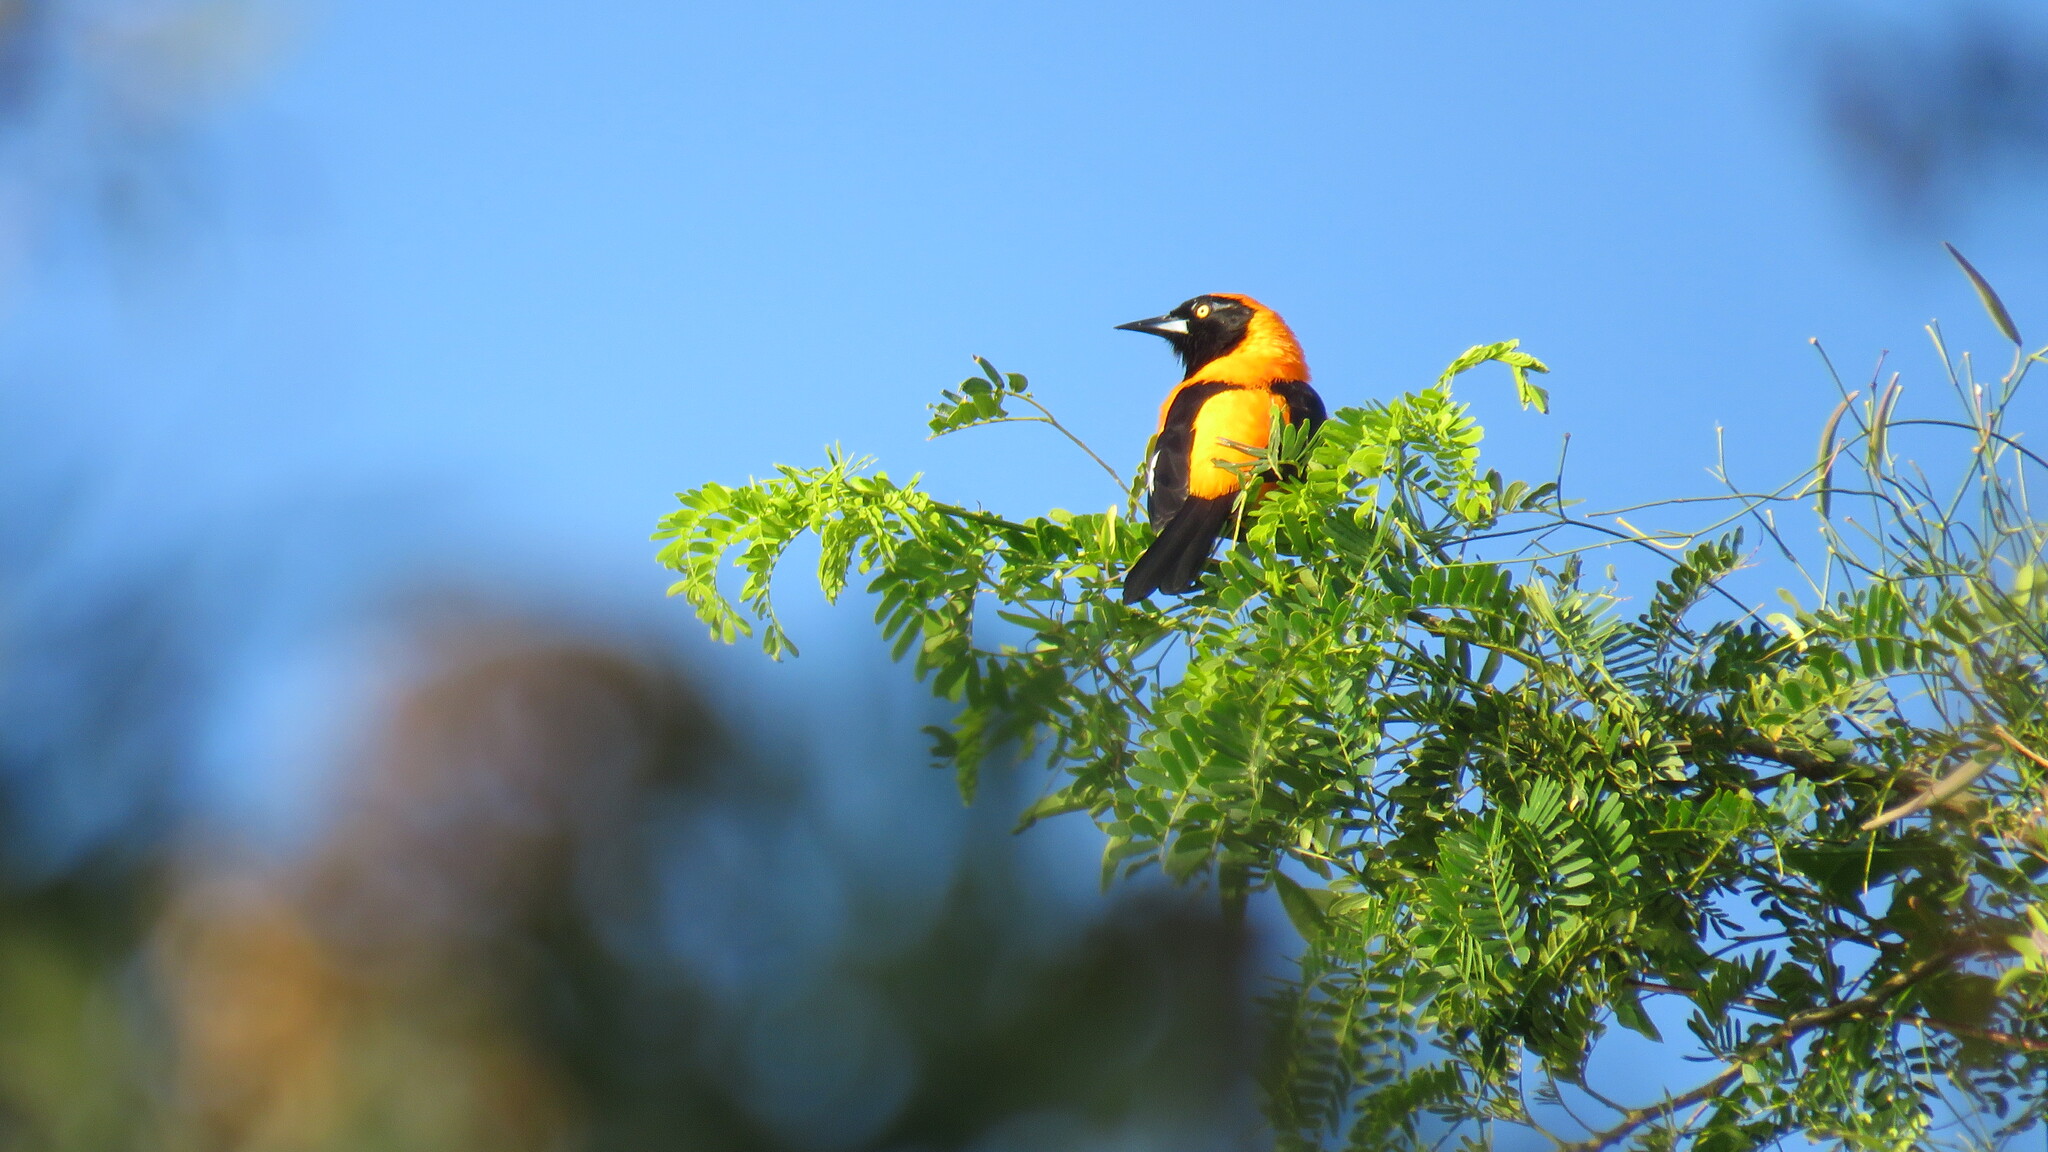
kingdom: Animalia
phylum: Chordata
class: Aves
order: Passeriformes
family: Icteridae
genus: Icterus
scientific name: Icterus icterus
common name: Venezuelan troupial
